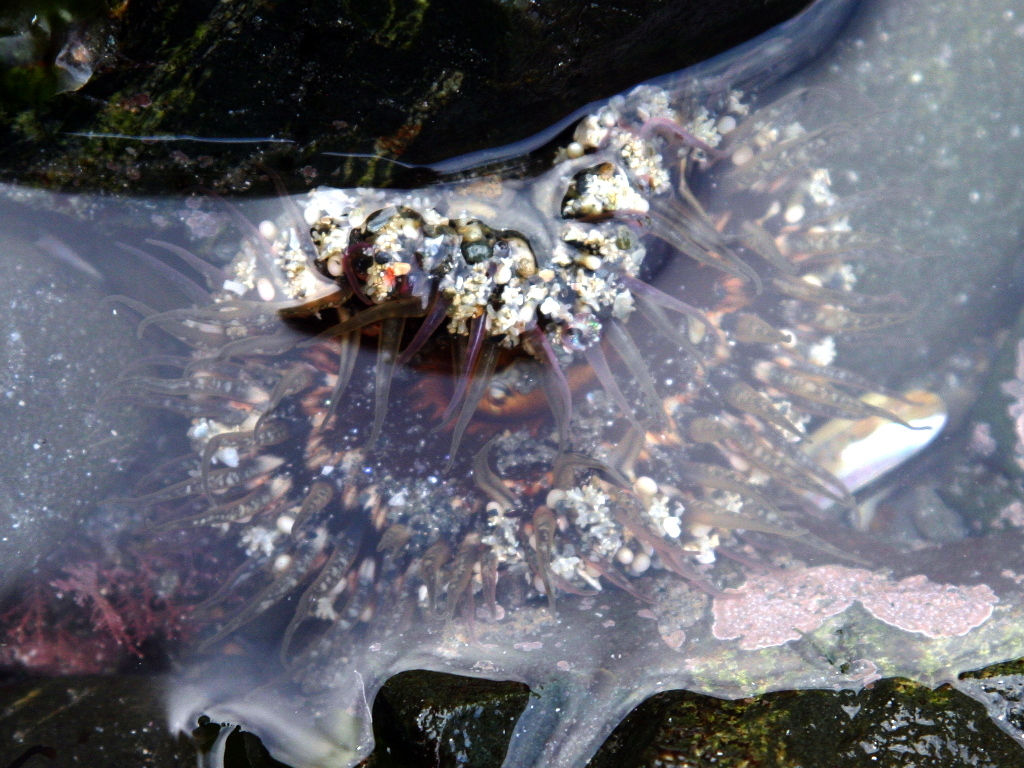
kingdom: Animalia
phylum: Cnidaria
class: Anthozoa
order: Actiniaria
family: Actiniidae
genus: Oulactis
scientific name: Oulactis muscosa
